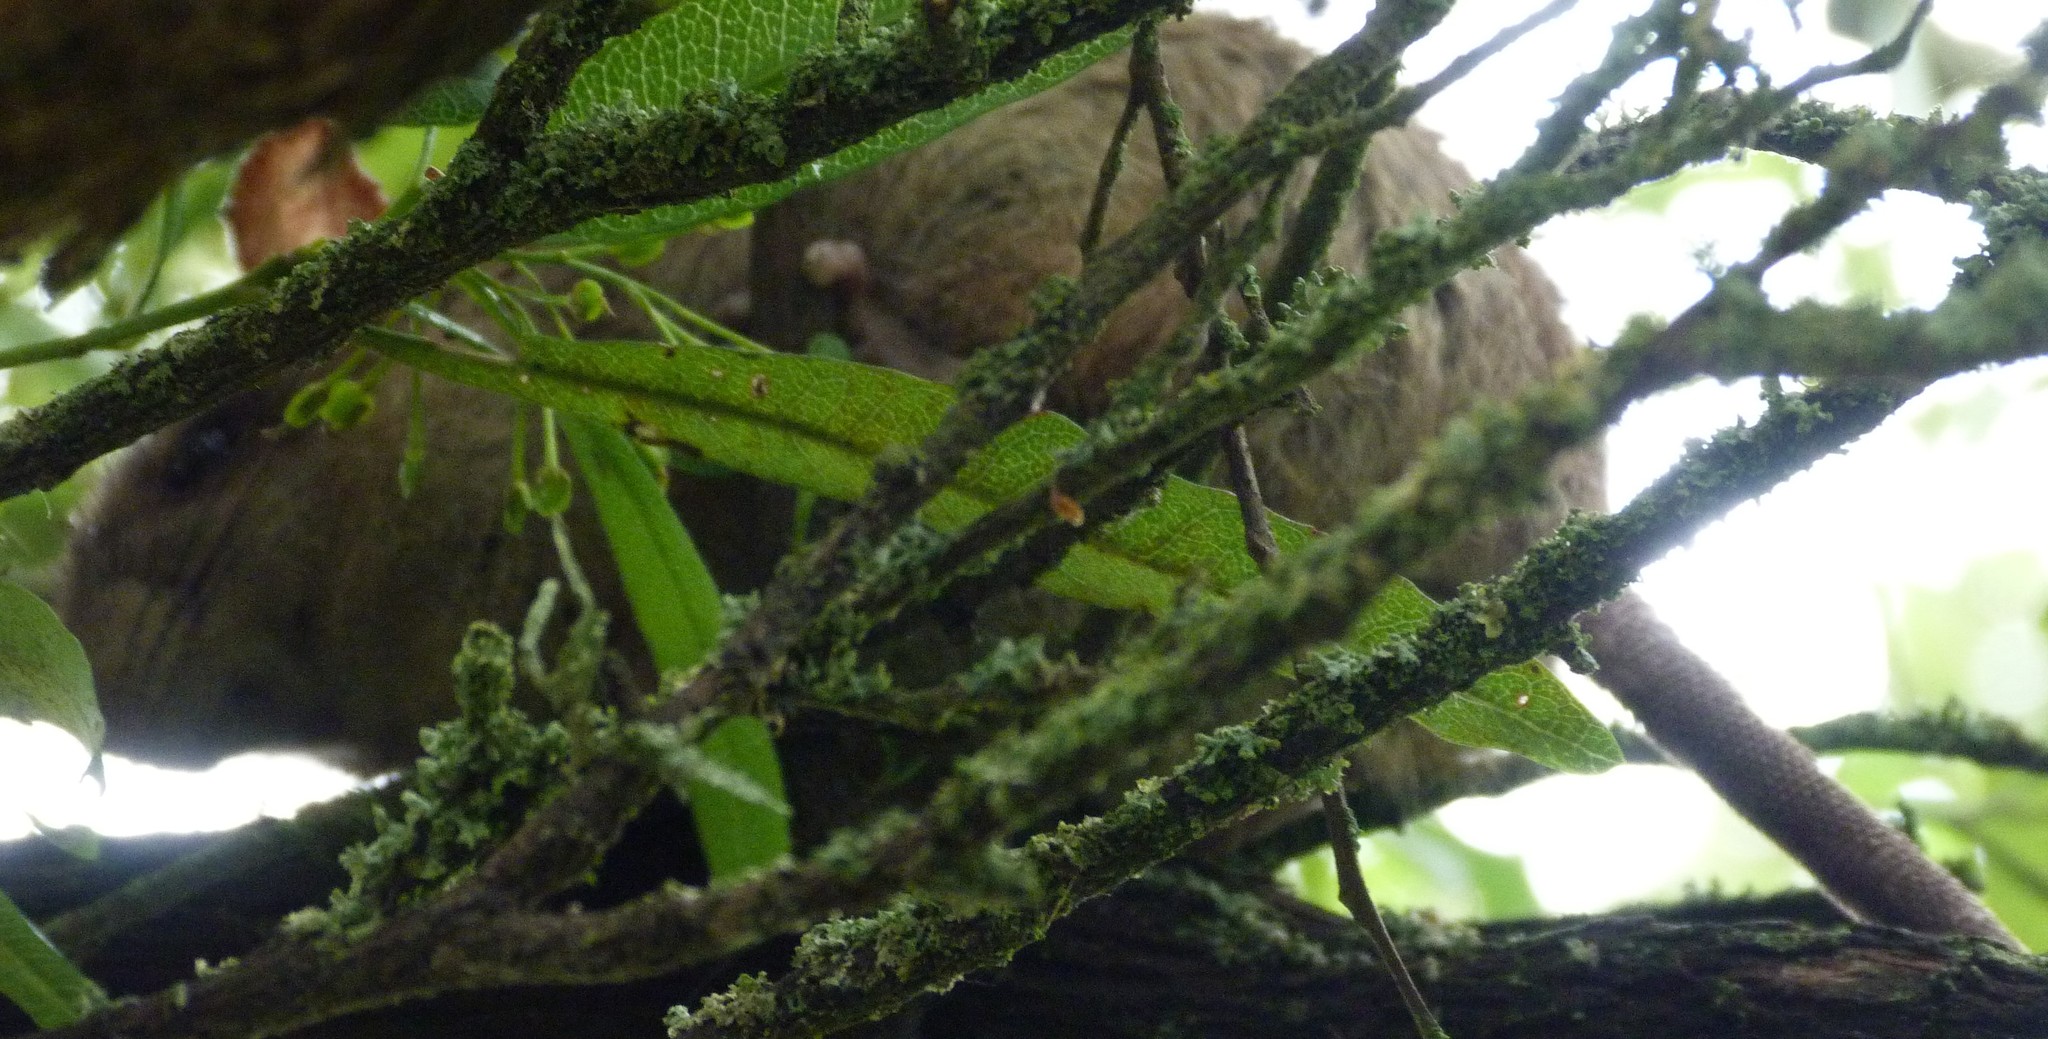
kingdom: Animalia
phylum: Chordata
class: Mammalia
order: Rodentia
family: Muridae
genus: Rattus
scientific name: Rattus rattus
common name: Black rat
